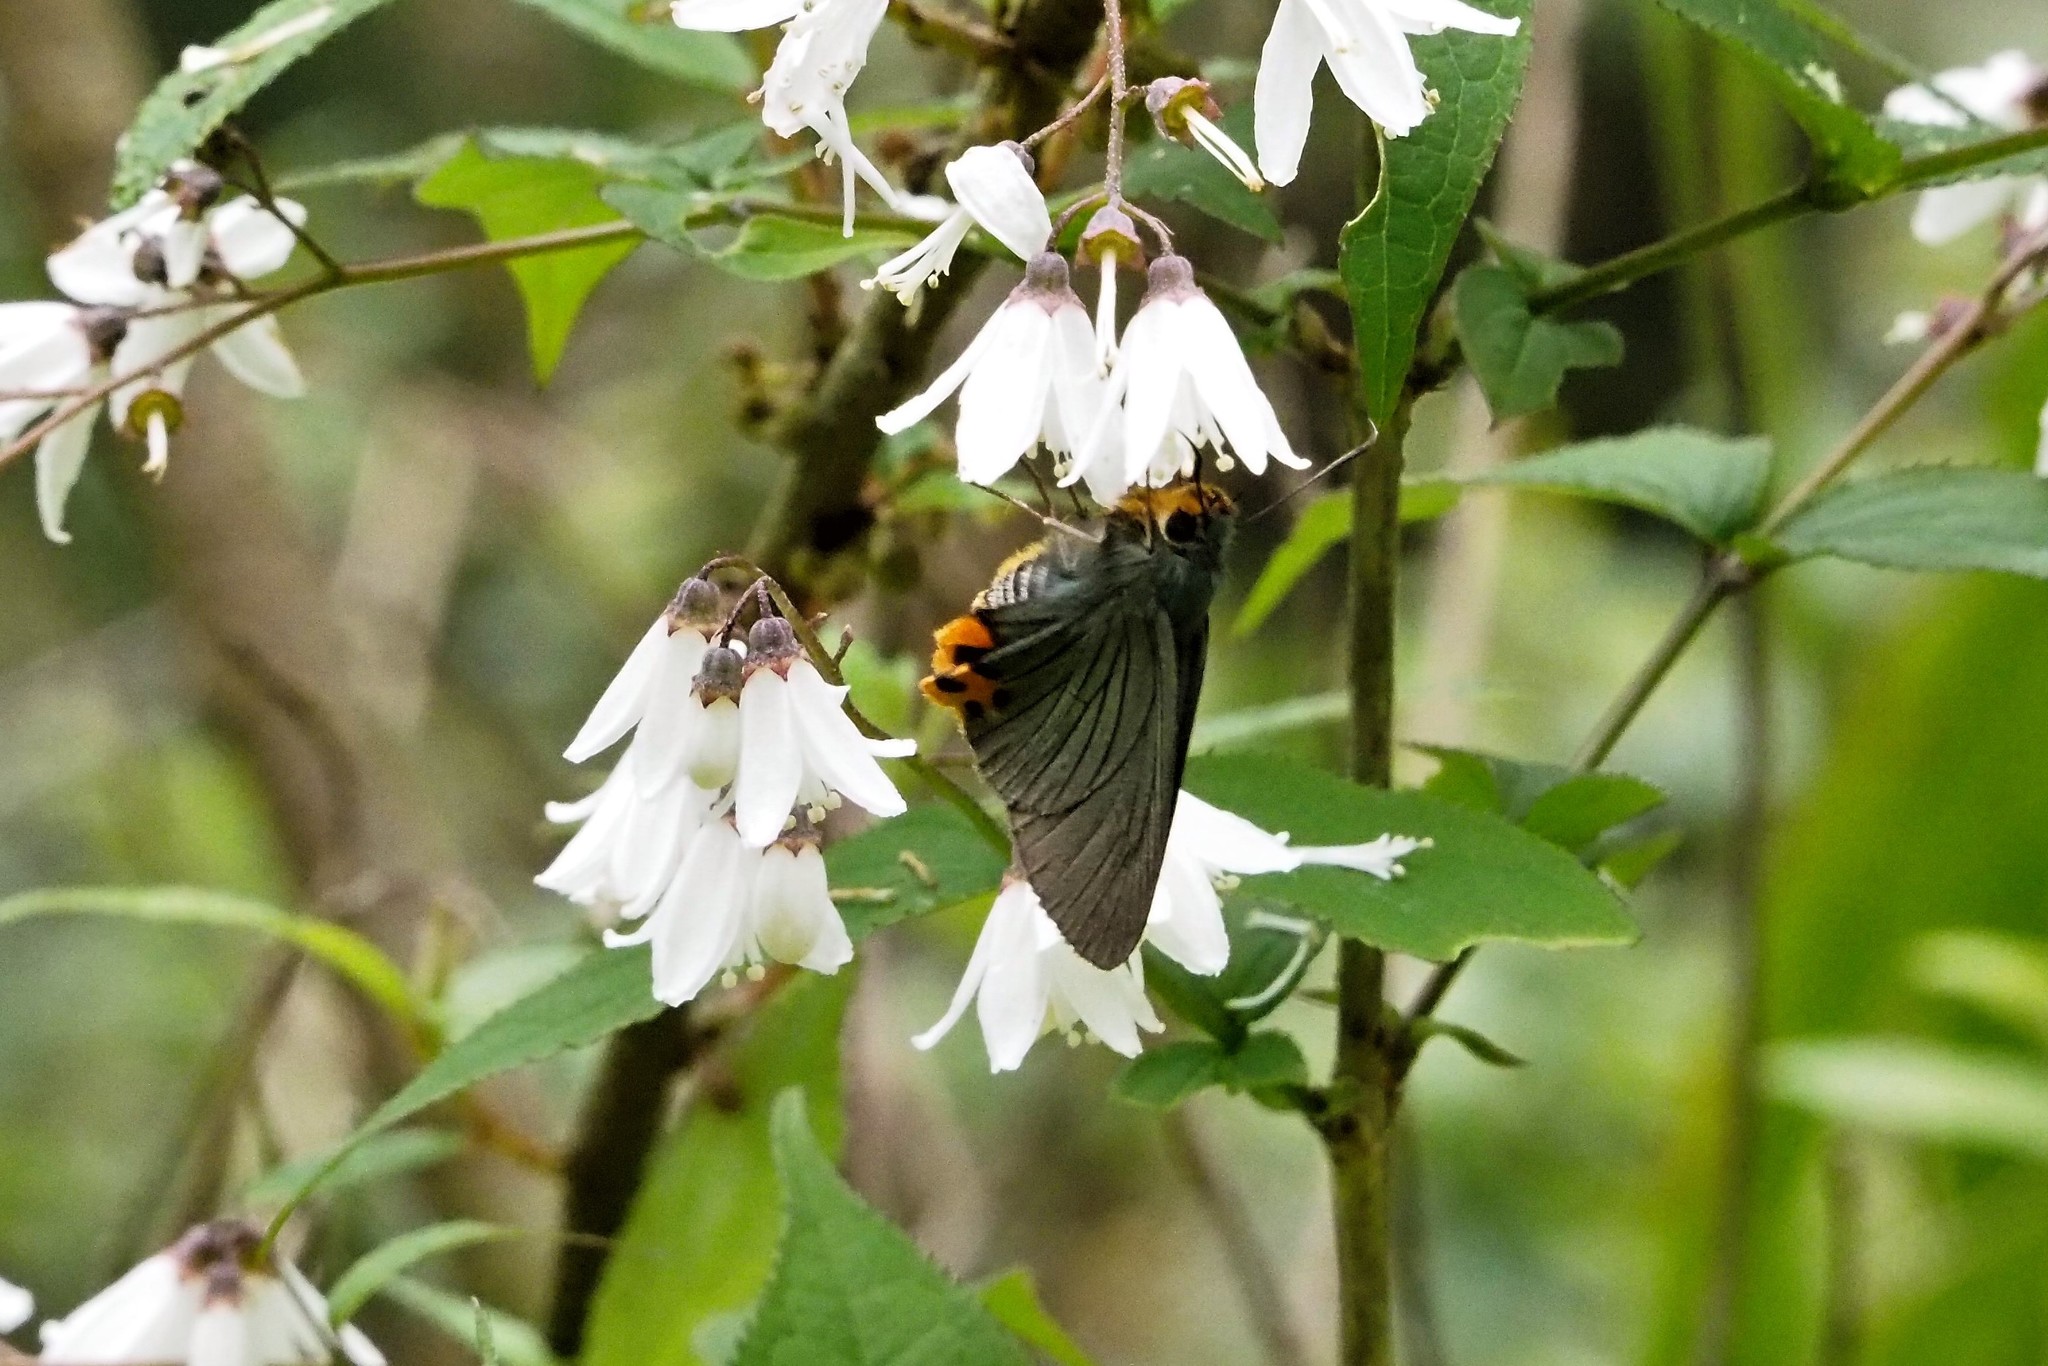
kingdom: Animalia
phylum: Arthropoda
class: Insecta
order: Lepidoptera
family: Hesperiidae
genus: Choaspes
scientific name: Choaspes benjaminii
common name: Indian awlking
